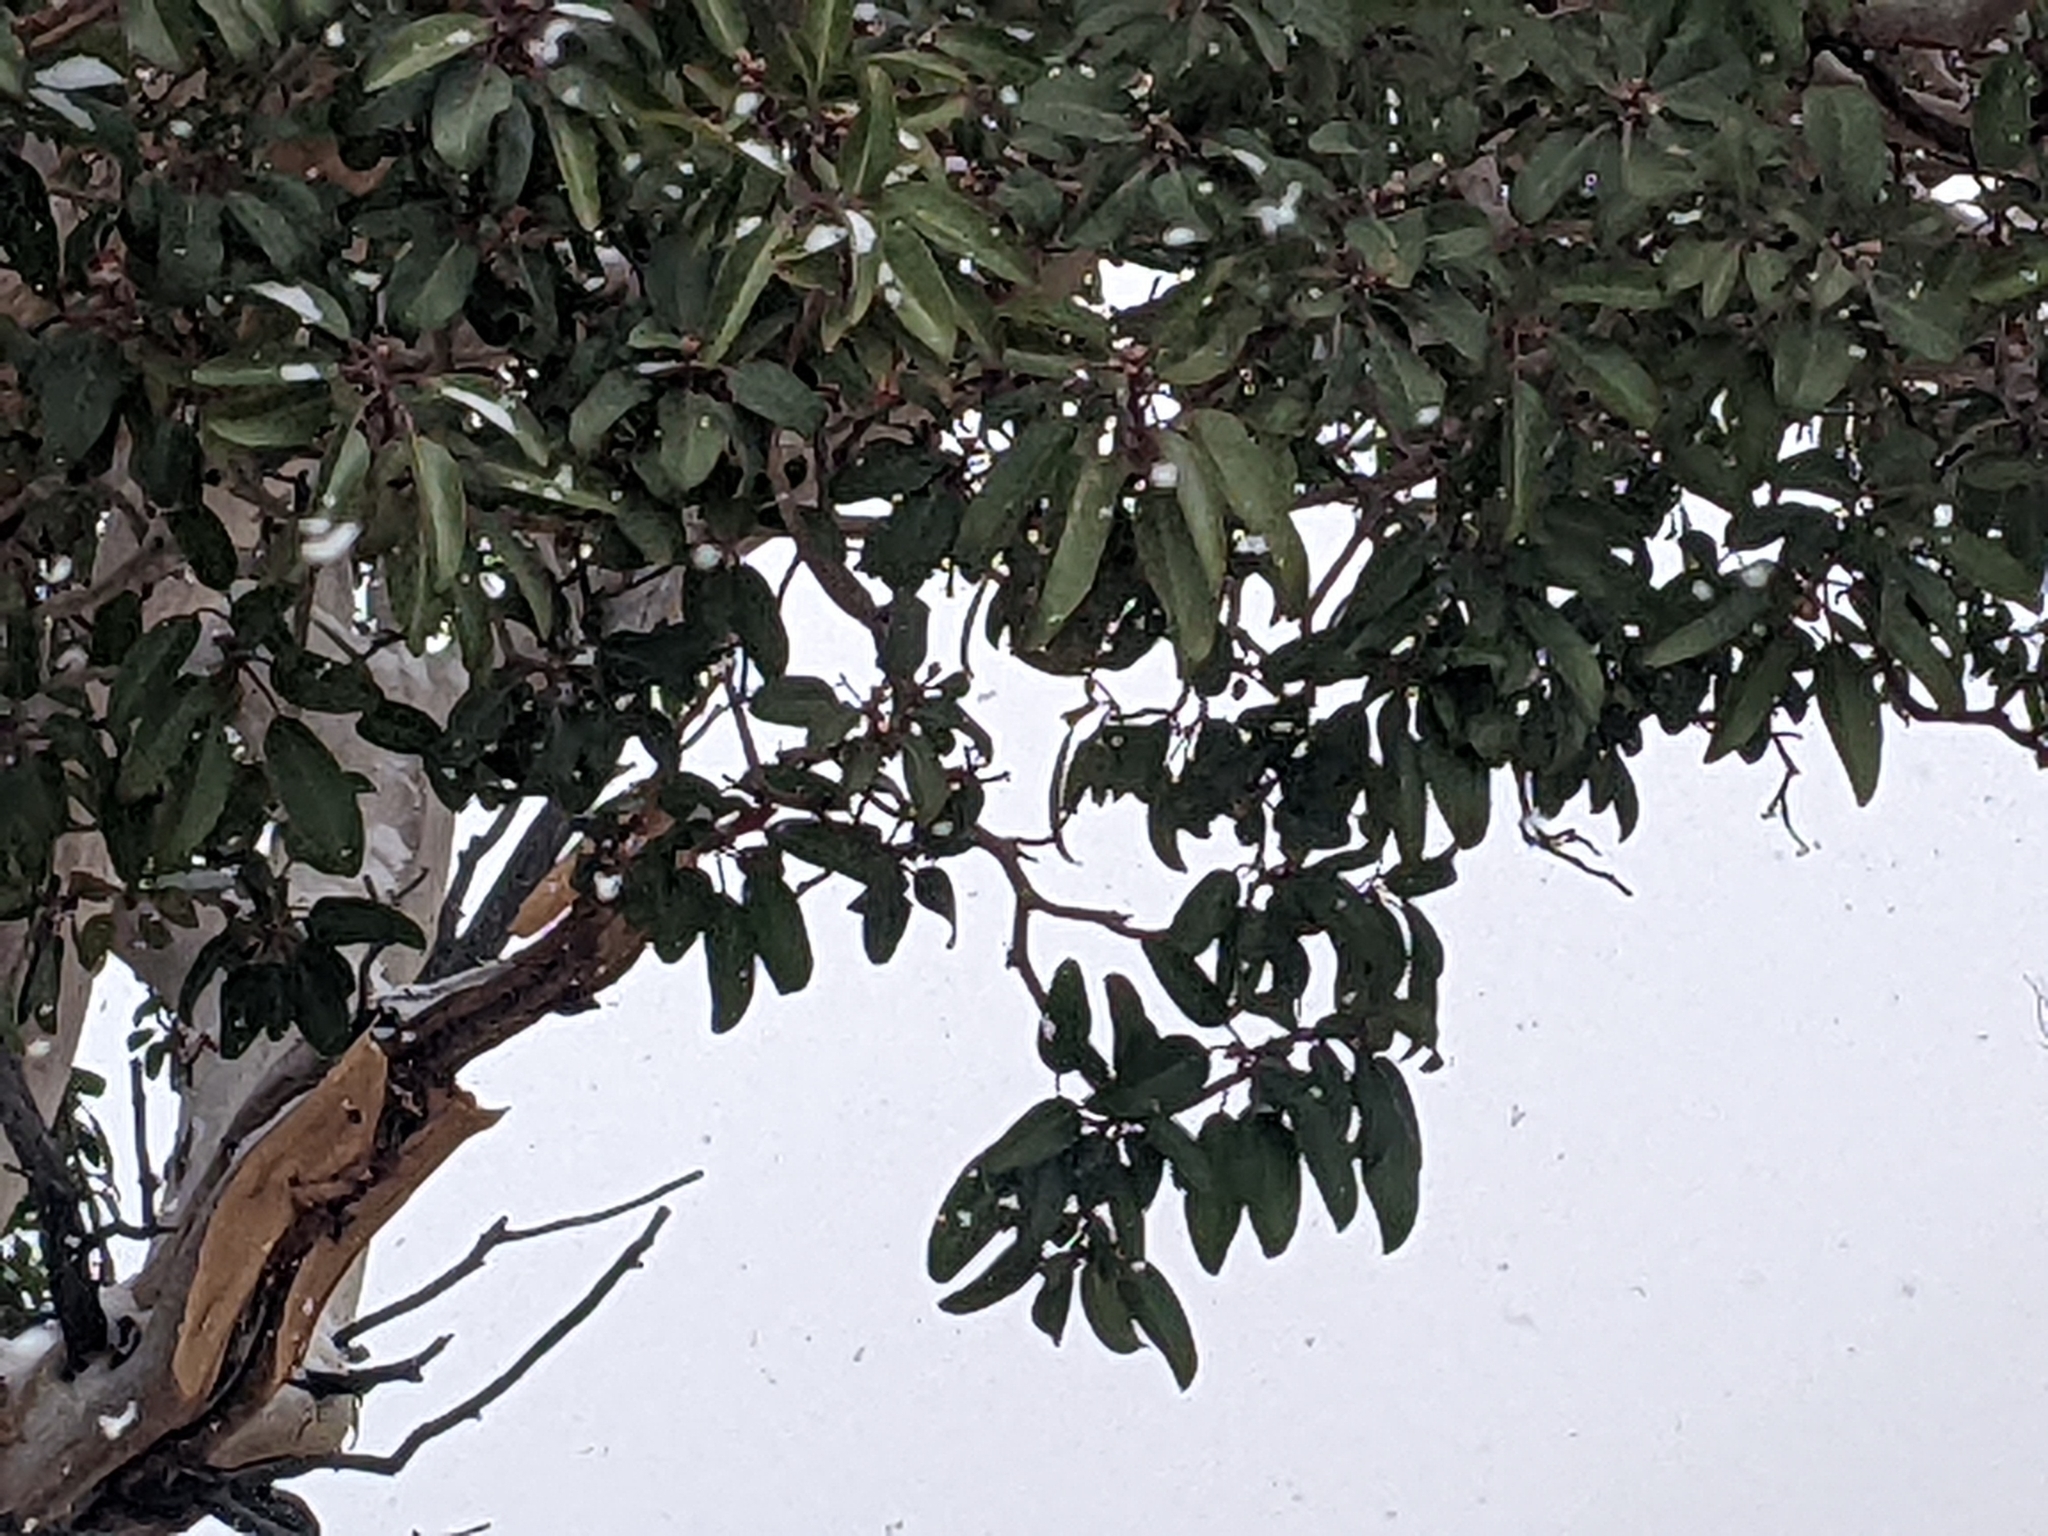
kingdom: Plantae
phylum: Tracheophyta
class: Magnoliopsida
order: Ericales
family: Ericaceae
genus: Arbutus
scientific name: Arbutus xalapensis
